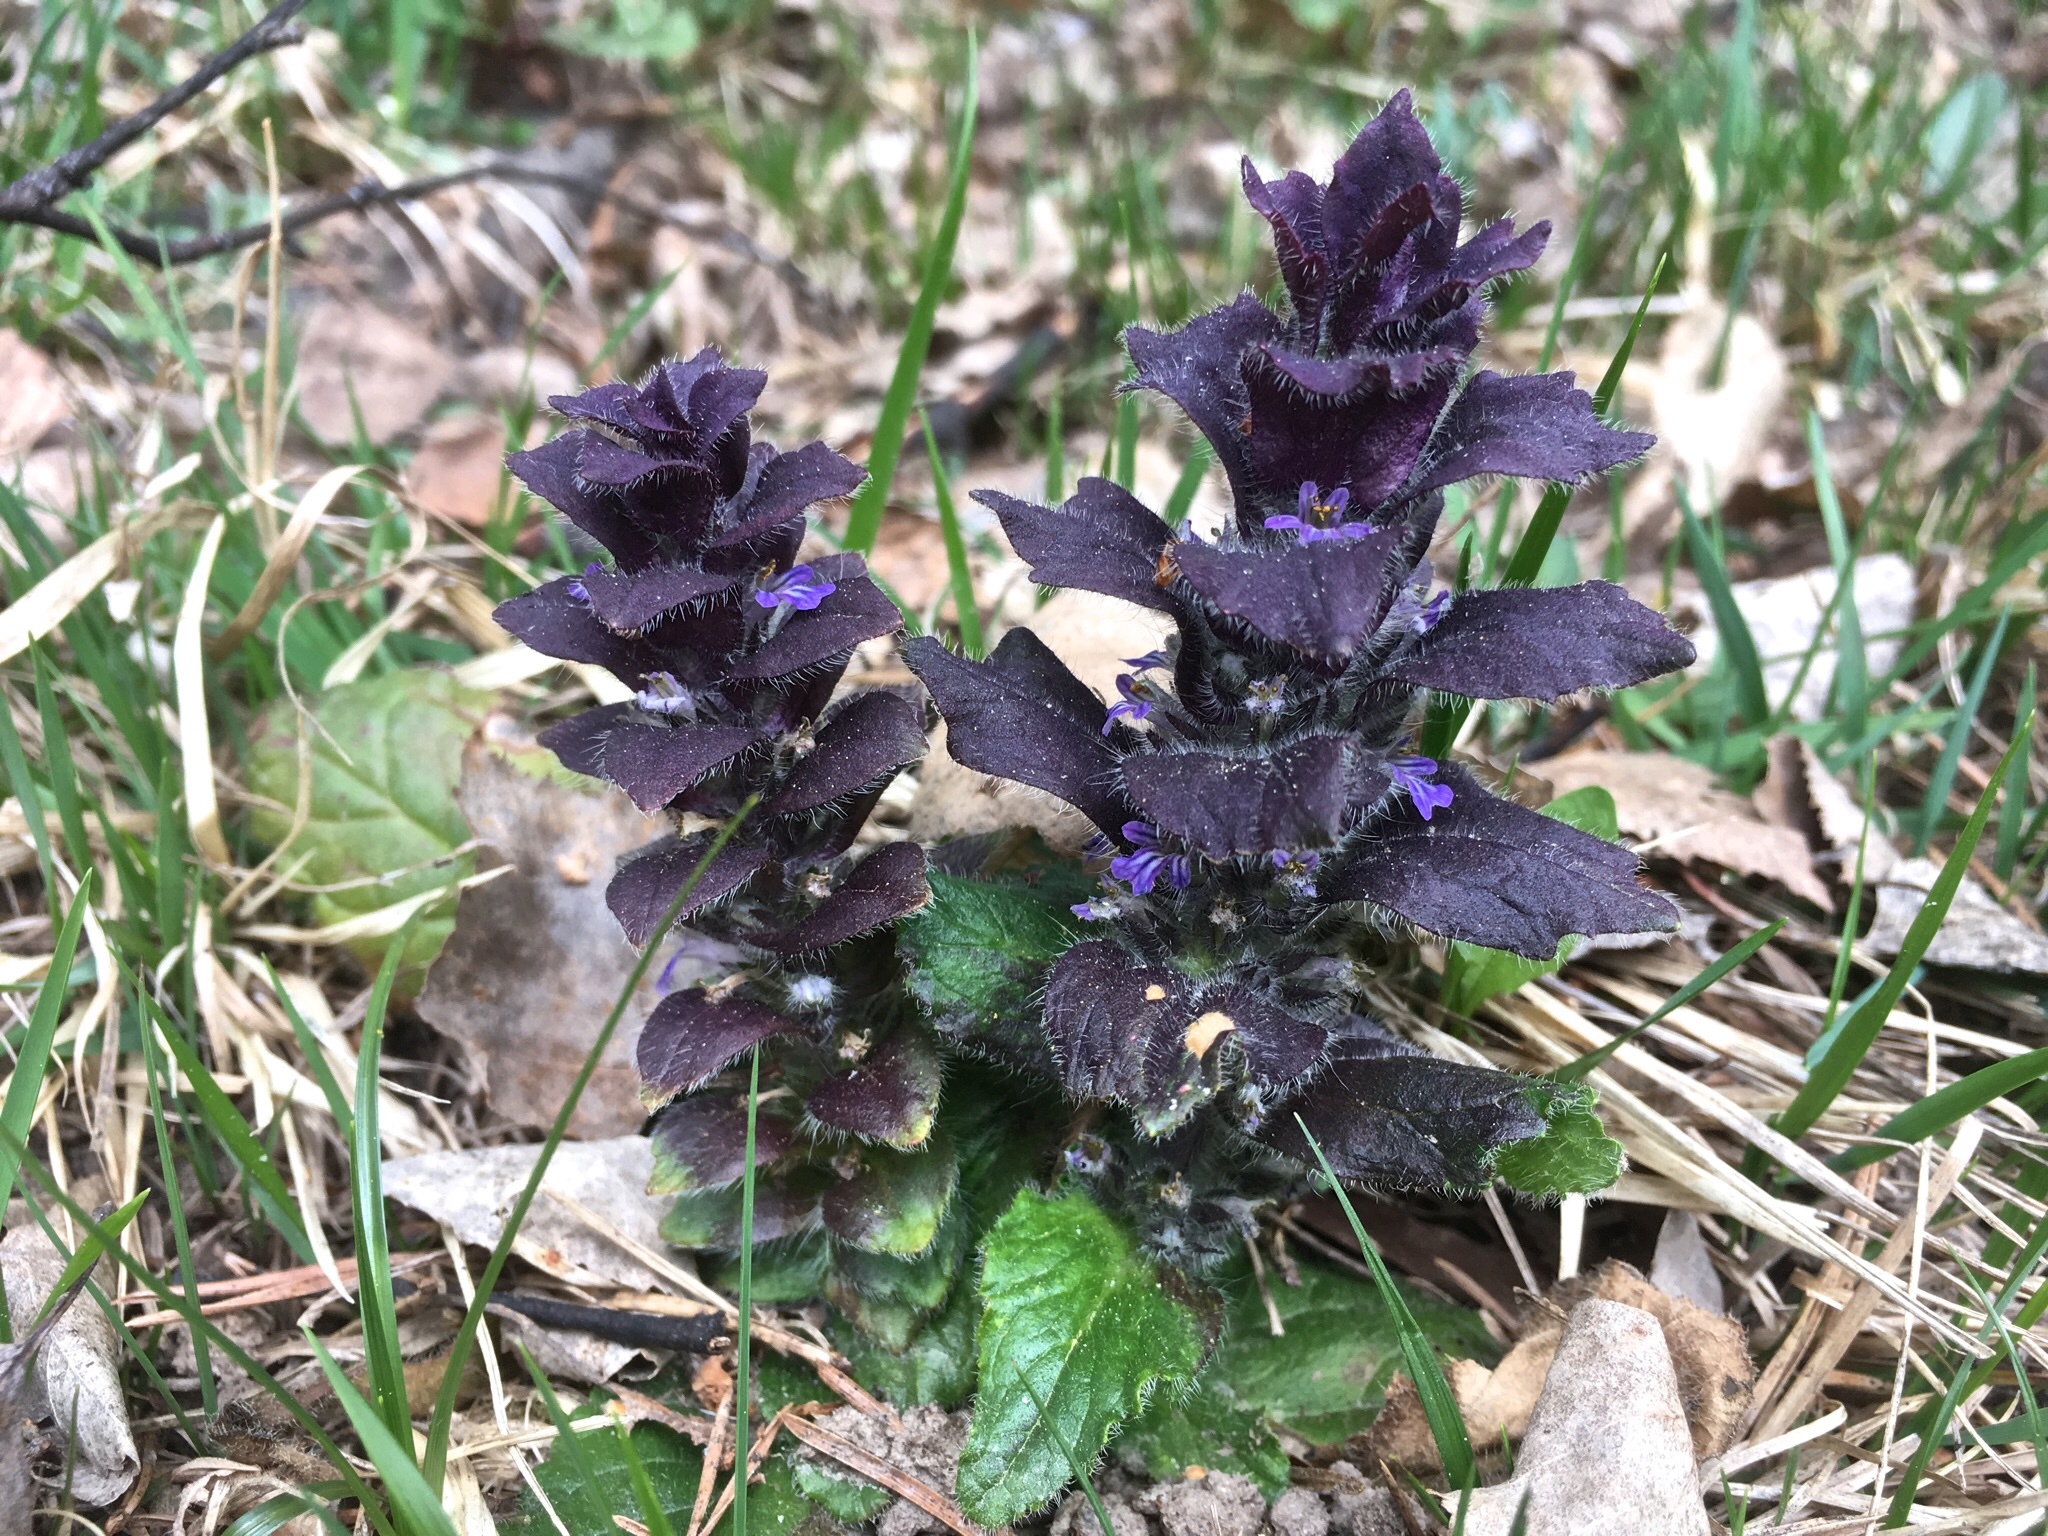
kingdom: Plantae
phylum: Tracheophyta
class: Magnoliopsida
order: Lamiales
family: Lamiaceae
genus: Ajuga
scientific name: Ajuga pyramidalis
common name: Pyramid bugle
